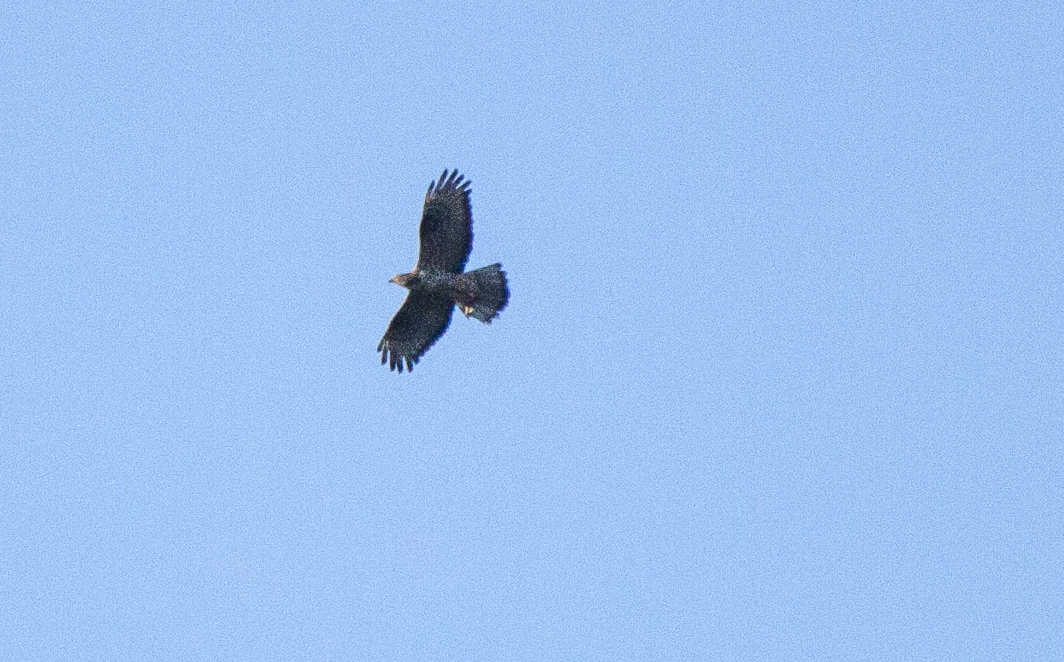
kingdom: Animalia
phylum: Chordata
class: Aves
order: Accipitriformes
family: Accipitridae
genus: Pernis
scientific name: Pernis apivorus
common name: European honey buzzard
